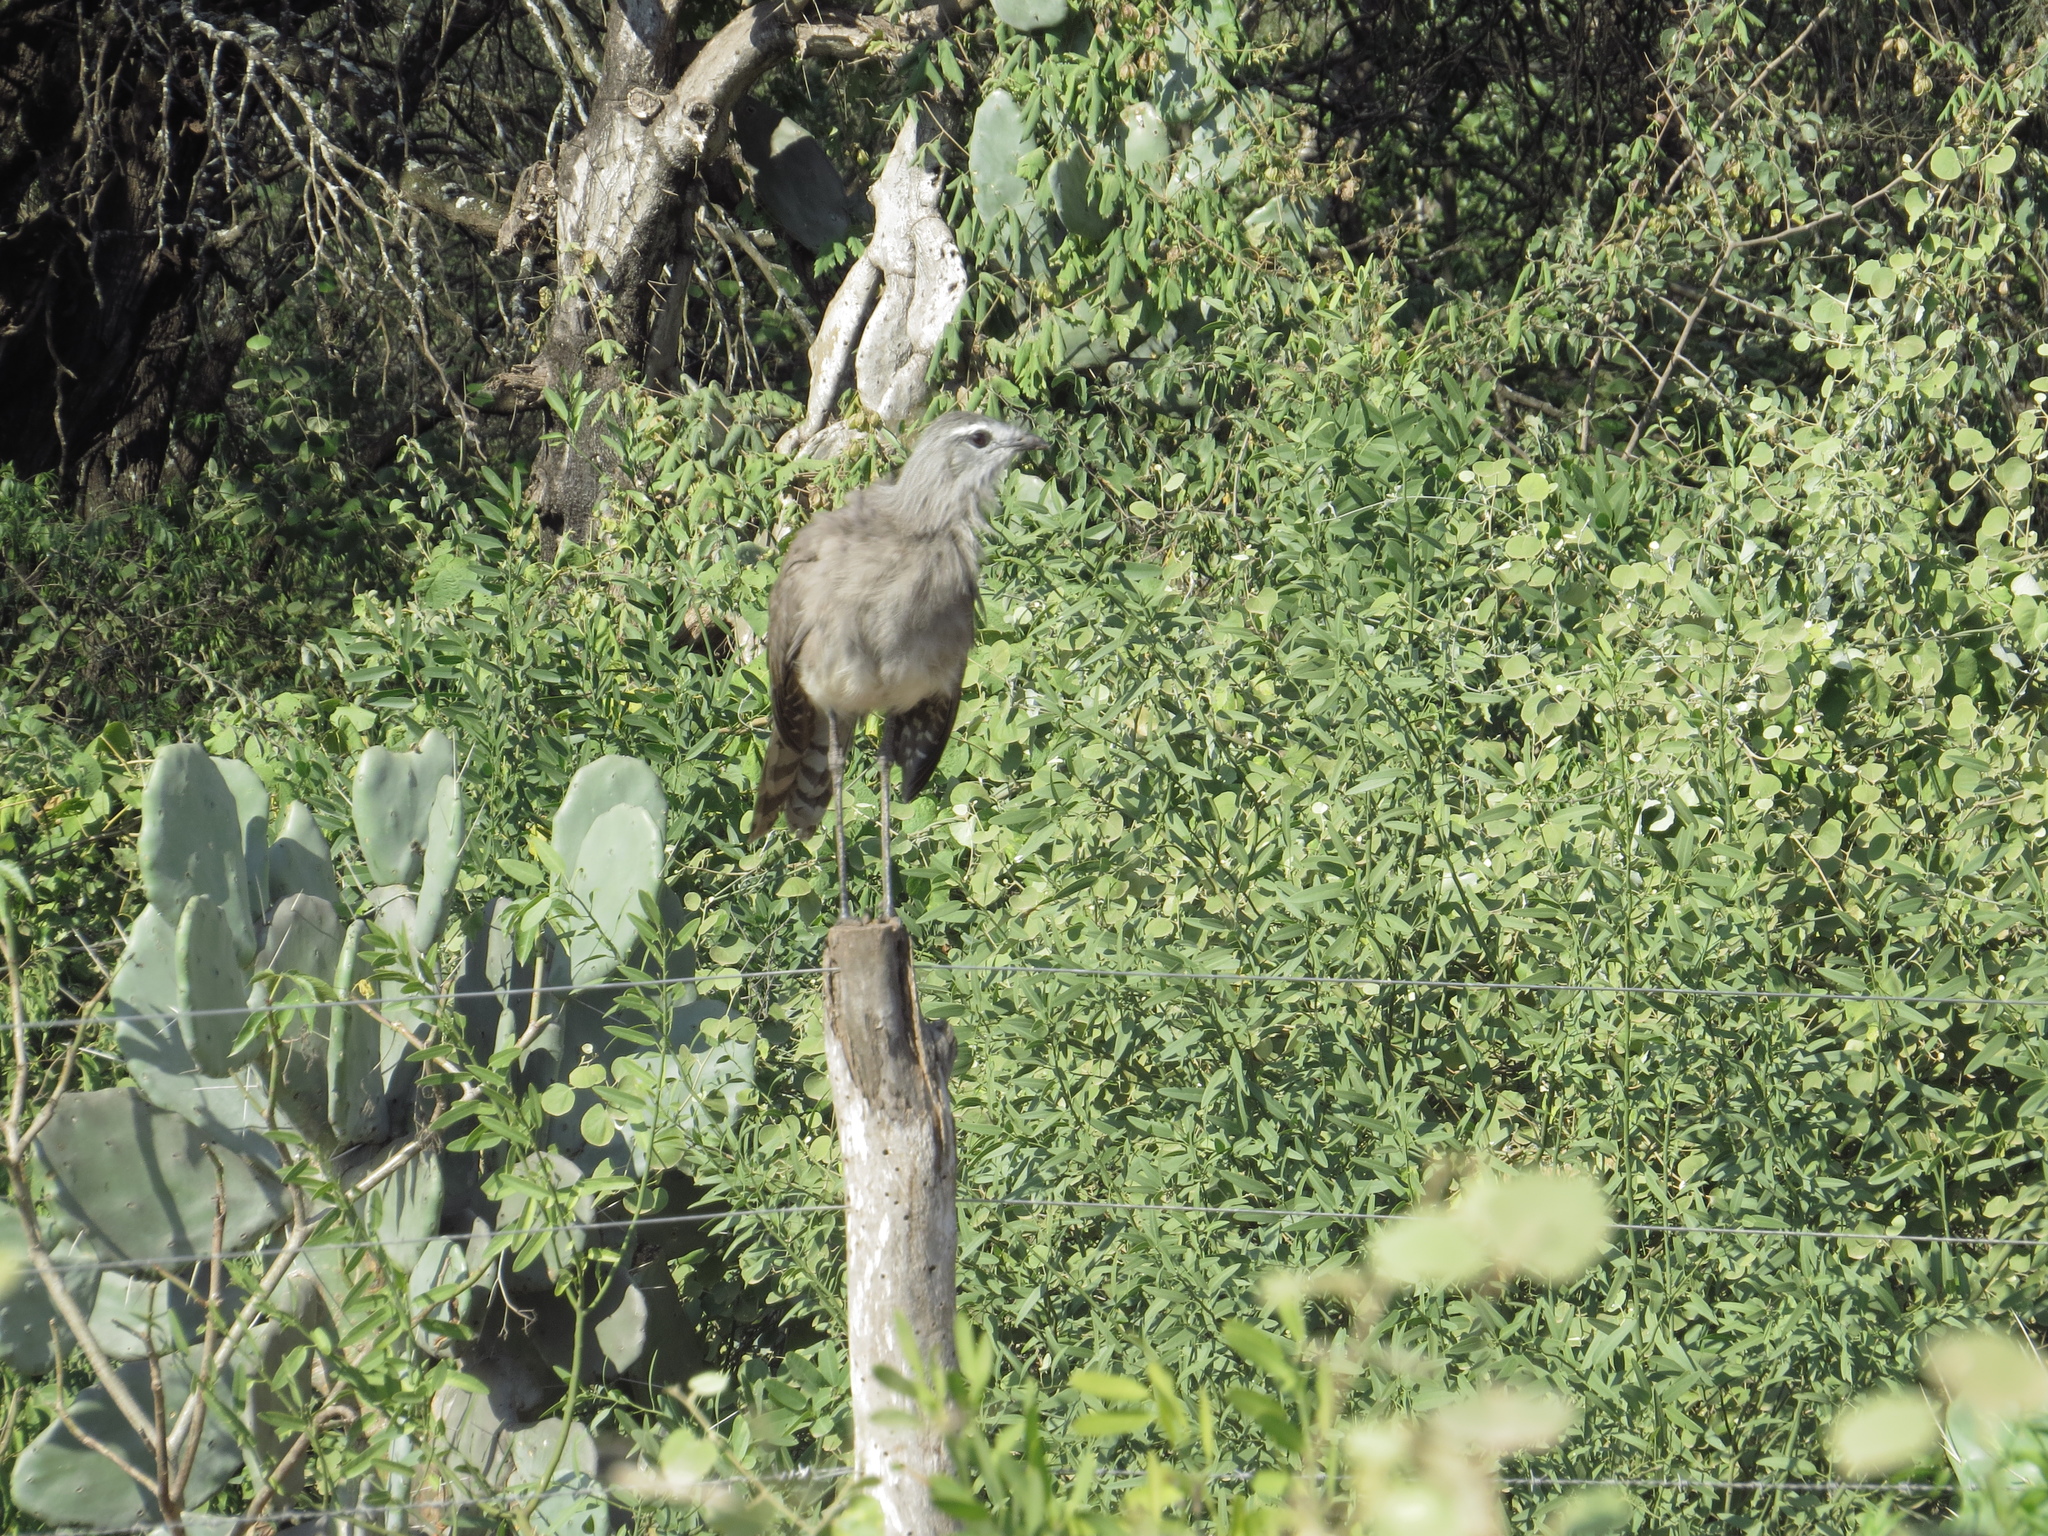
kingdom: Animalia
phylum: Chordata
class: Aves
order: Cariamiformes
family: Cariamidae
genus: Chunga
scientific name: Chunga burmeisteri
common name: Black-legged seriema
